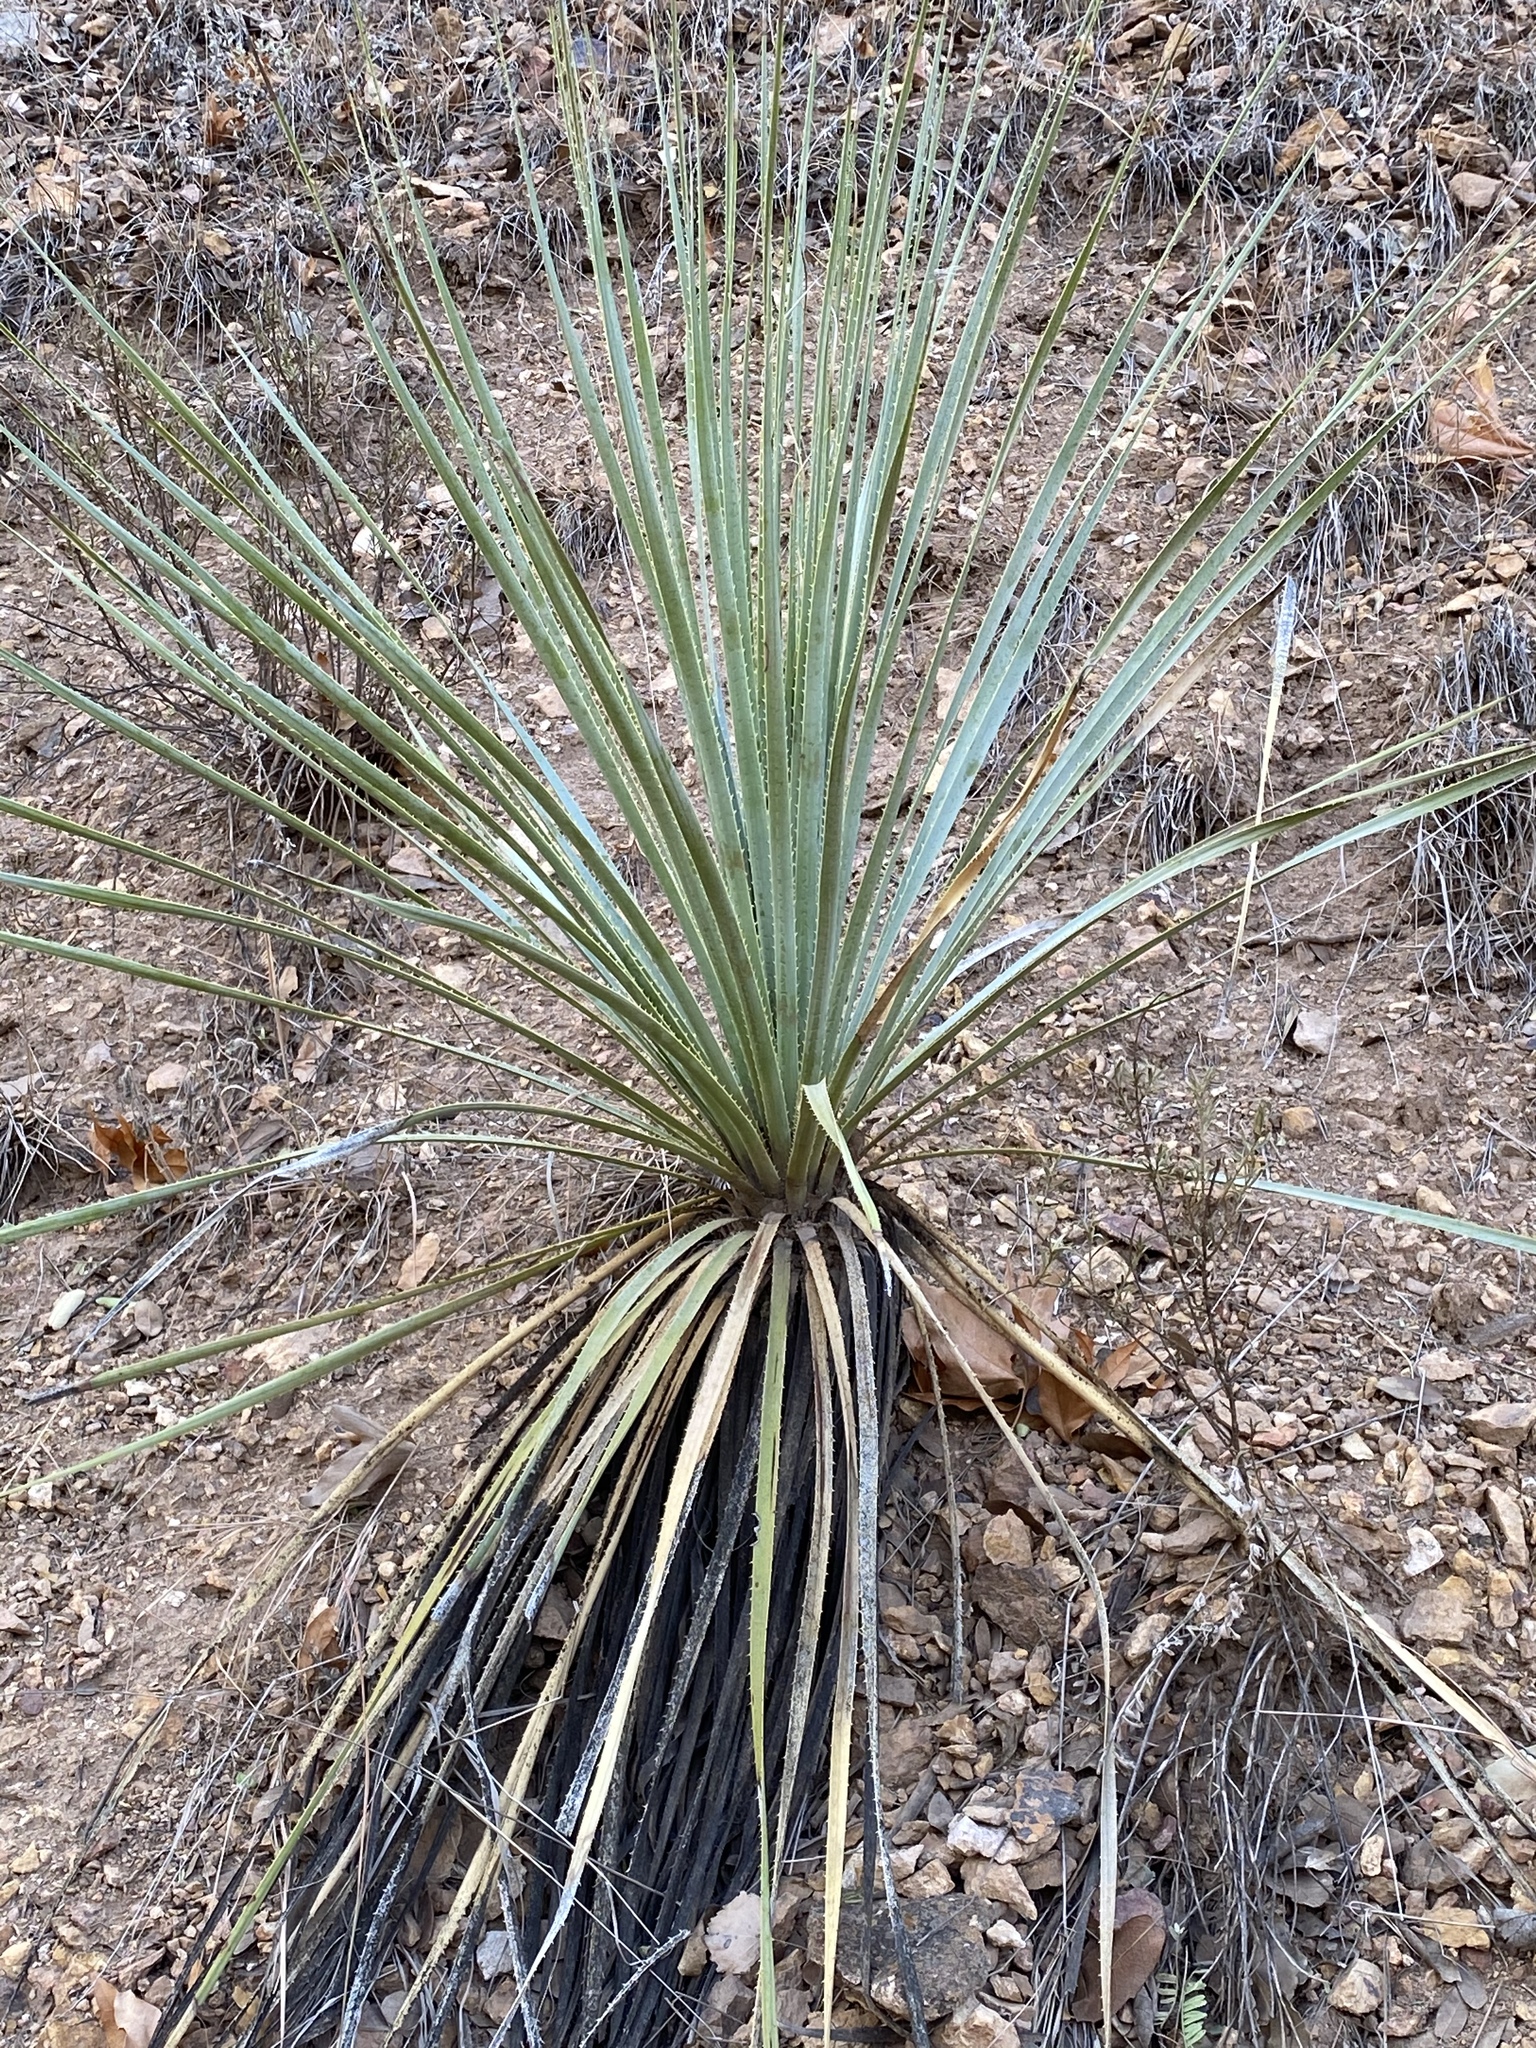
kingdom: Plantae
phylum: Tracheophyta
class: Liliopsida
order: Asparagales
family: Asparagaceae
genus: Dasylirion
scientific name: Dasylirion wheeleri
